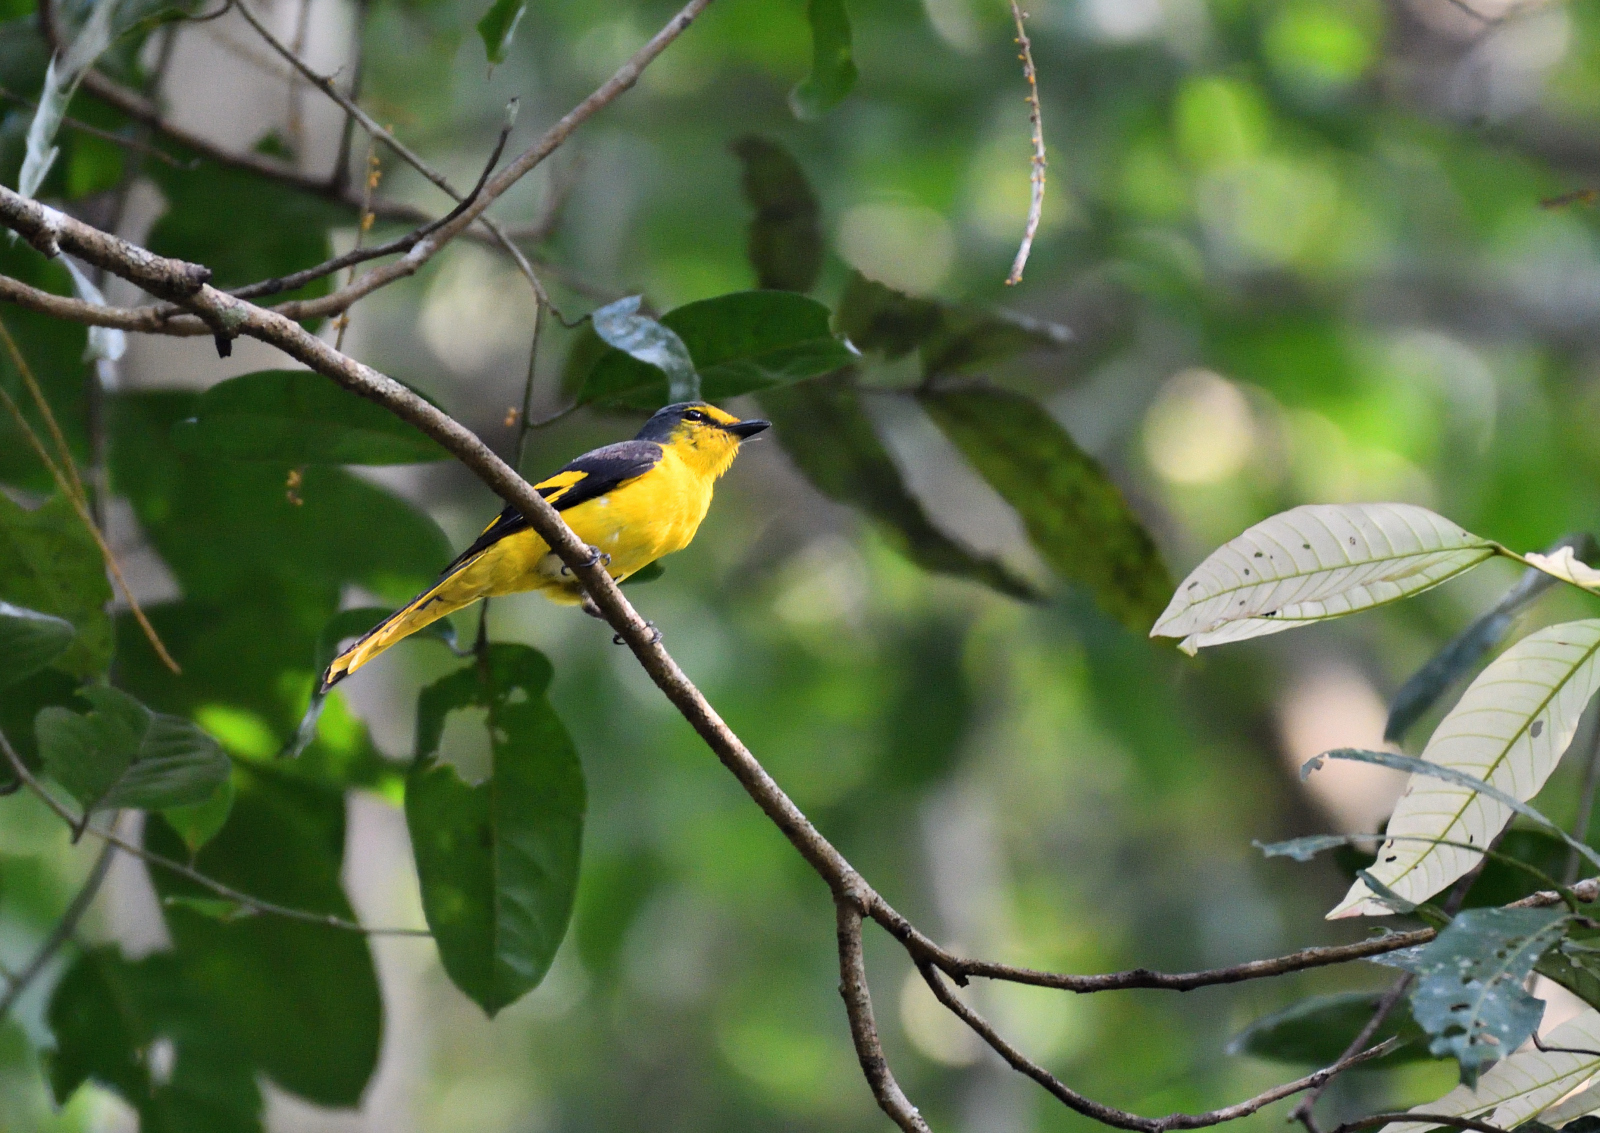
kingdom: Animalia
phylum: Chordata
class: Aves
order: Passeriformes
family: Campephagidae
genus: Pericrocotus
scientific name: Pericrocotus flammeus
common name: Orange minivet
